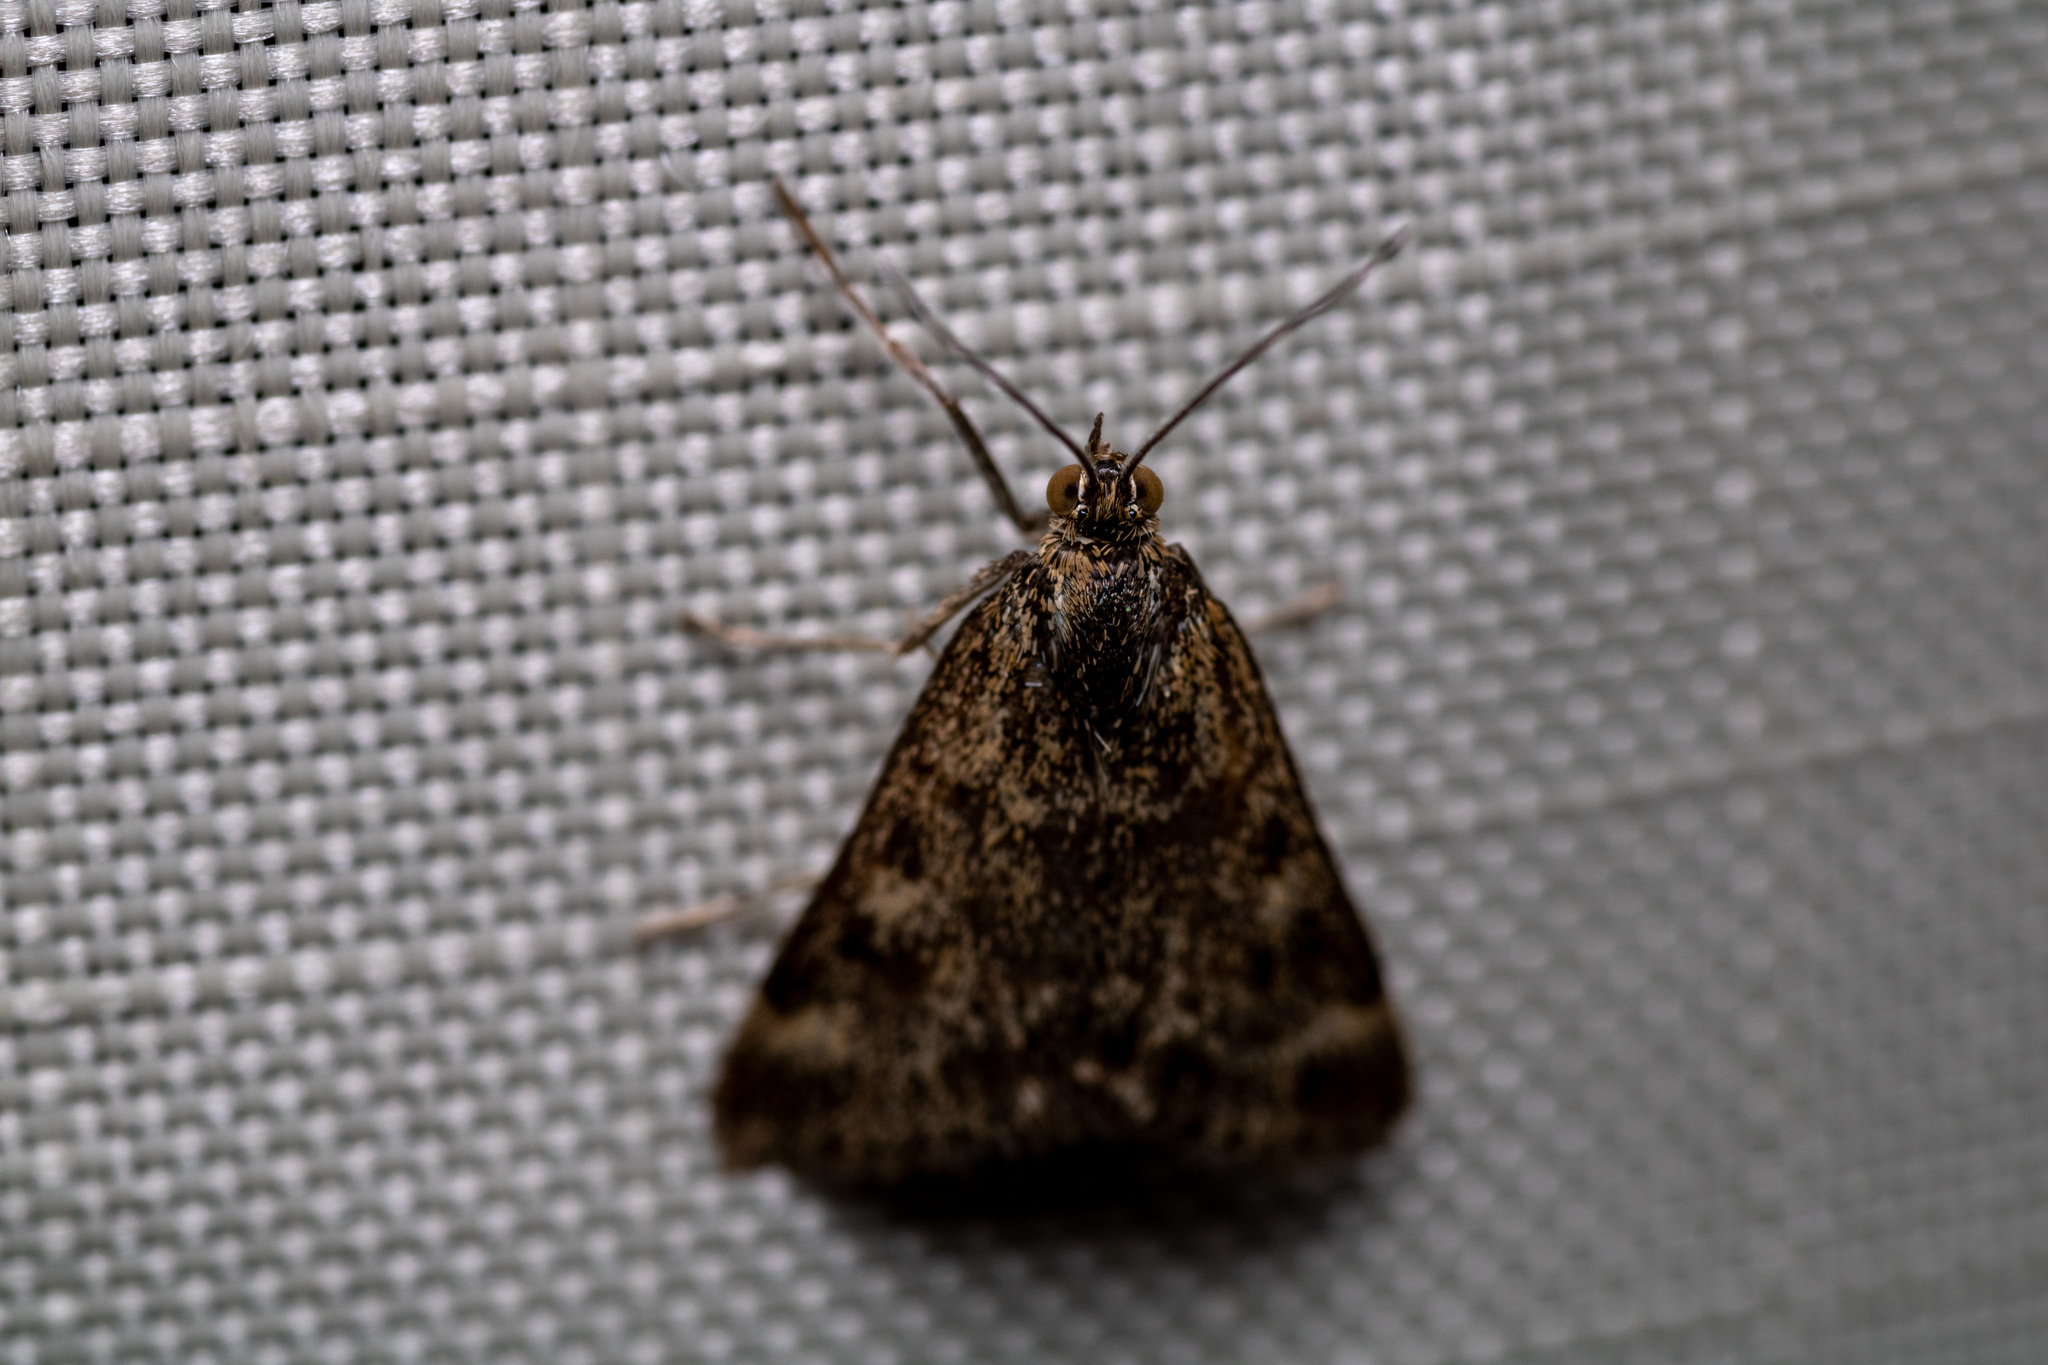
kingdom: Animalia
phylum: Arthropoda
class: Insecta
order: Lepidoptera
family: Crambidae
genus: Pyrausta
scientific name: Pyrausta despicata
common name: Straw-barred pearl
